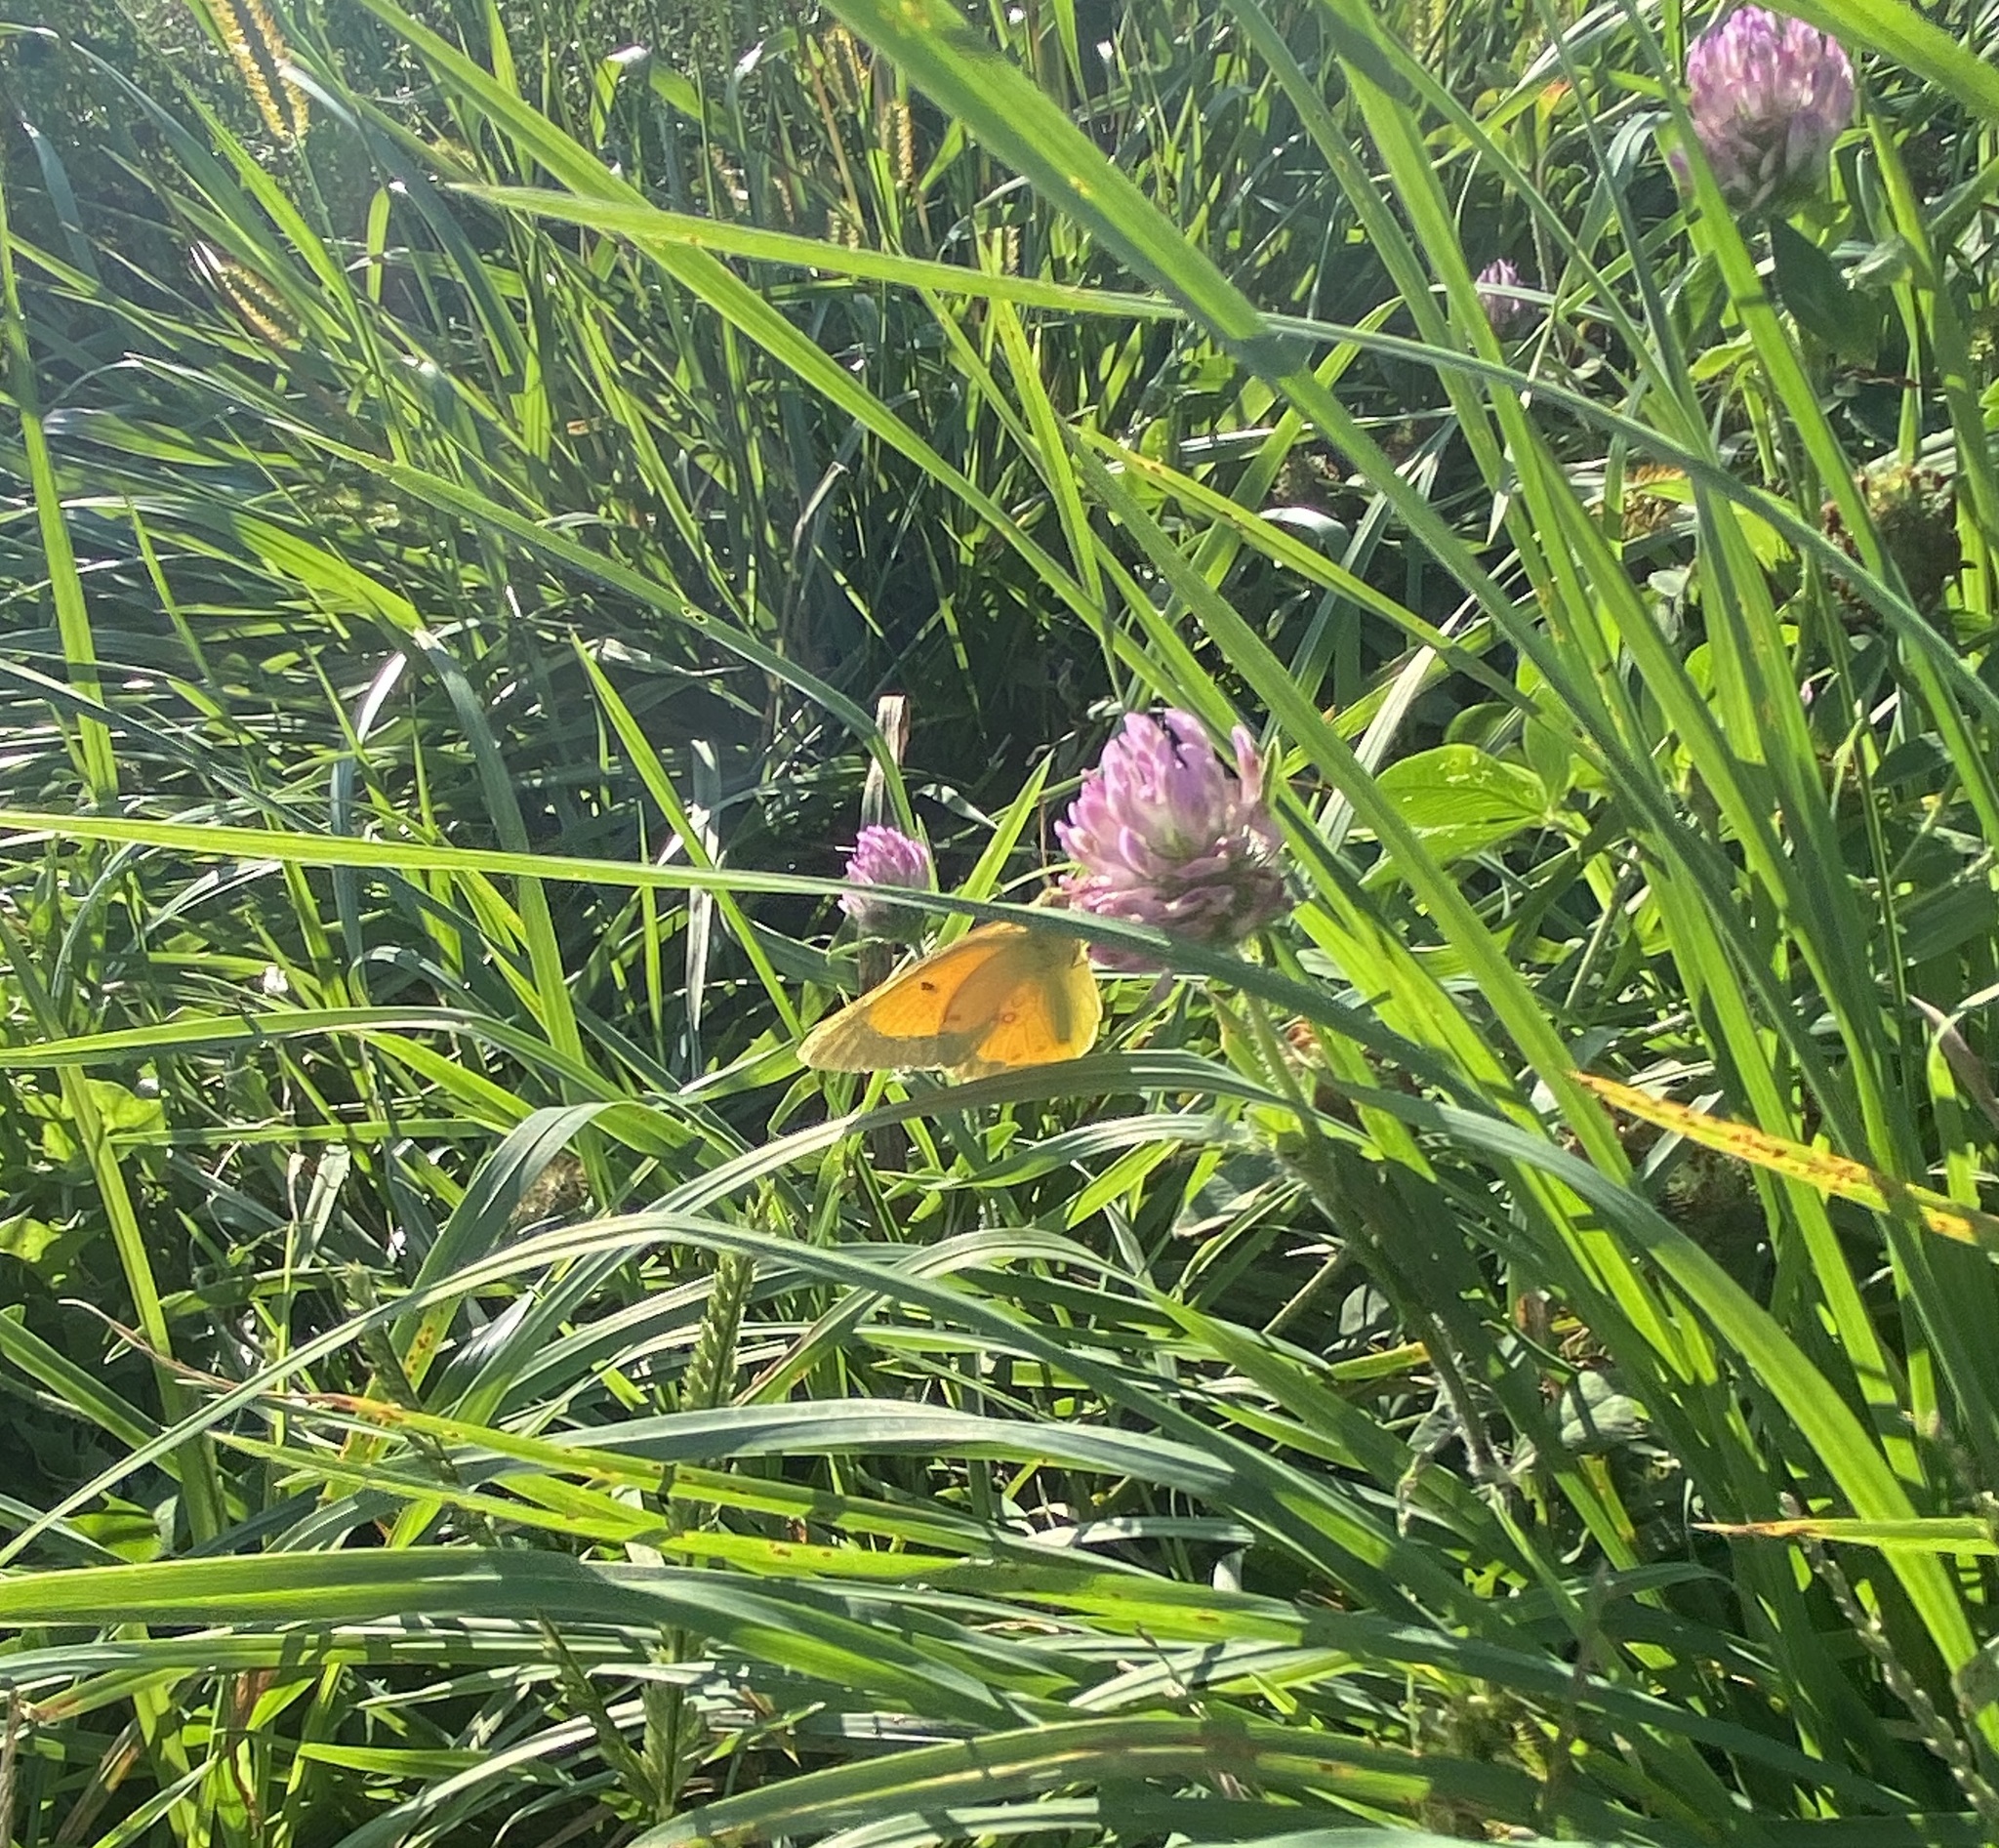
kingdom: Animalia
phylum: Arthropoda
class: Insecta
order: Lepidoptera
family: Pieridae
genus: Colias
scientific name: Colias eurytheme
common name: Alfalfa butterfly
